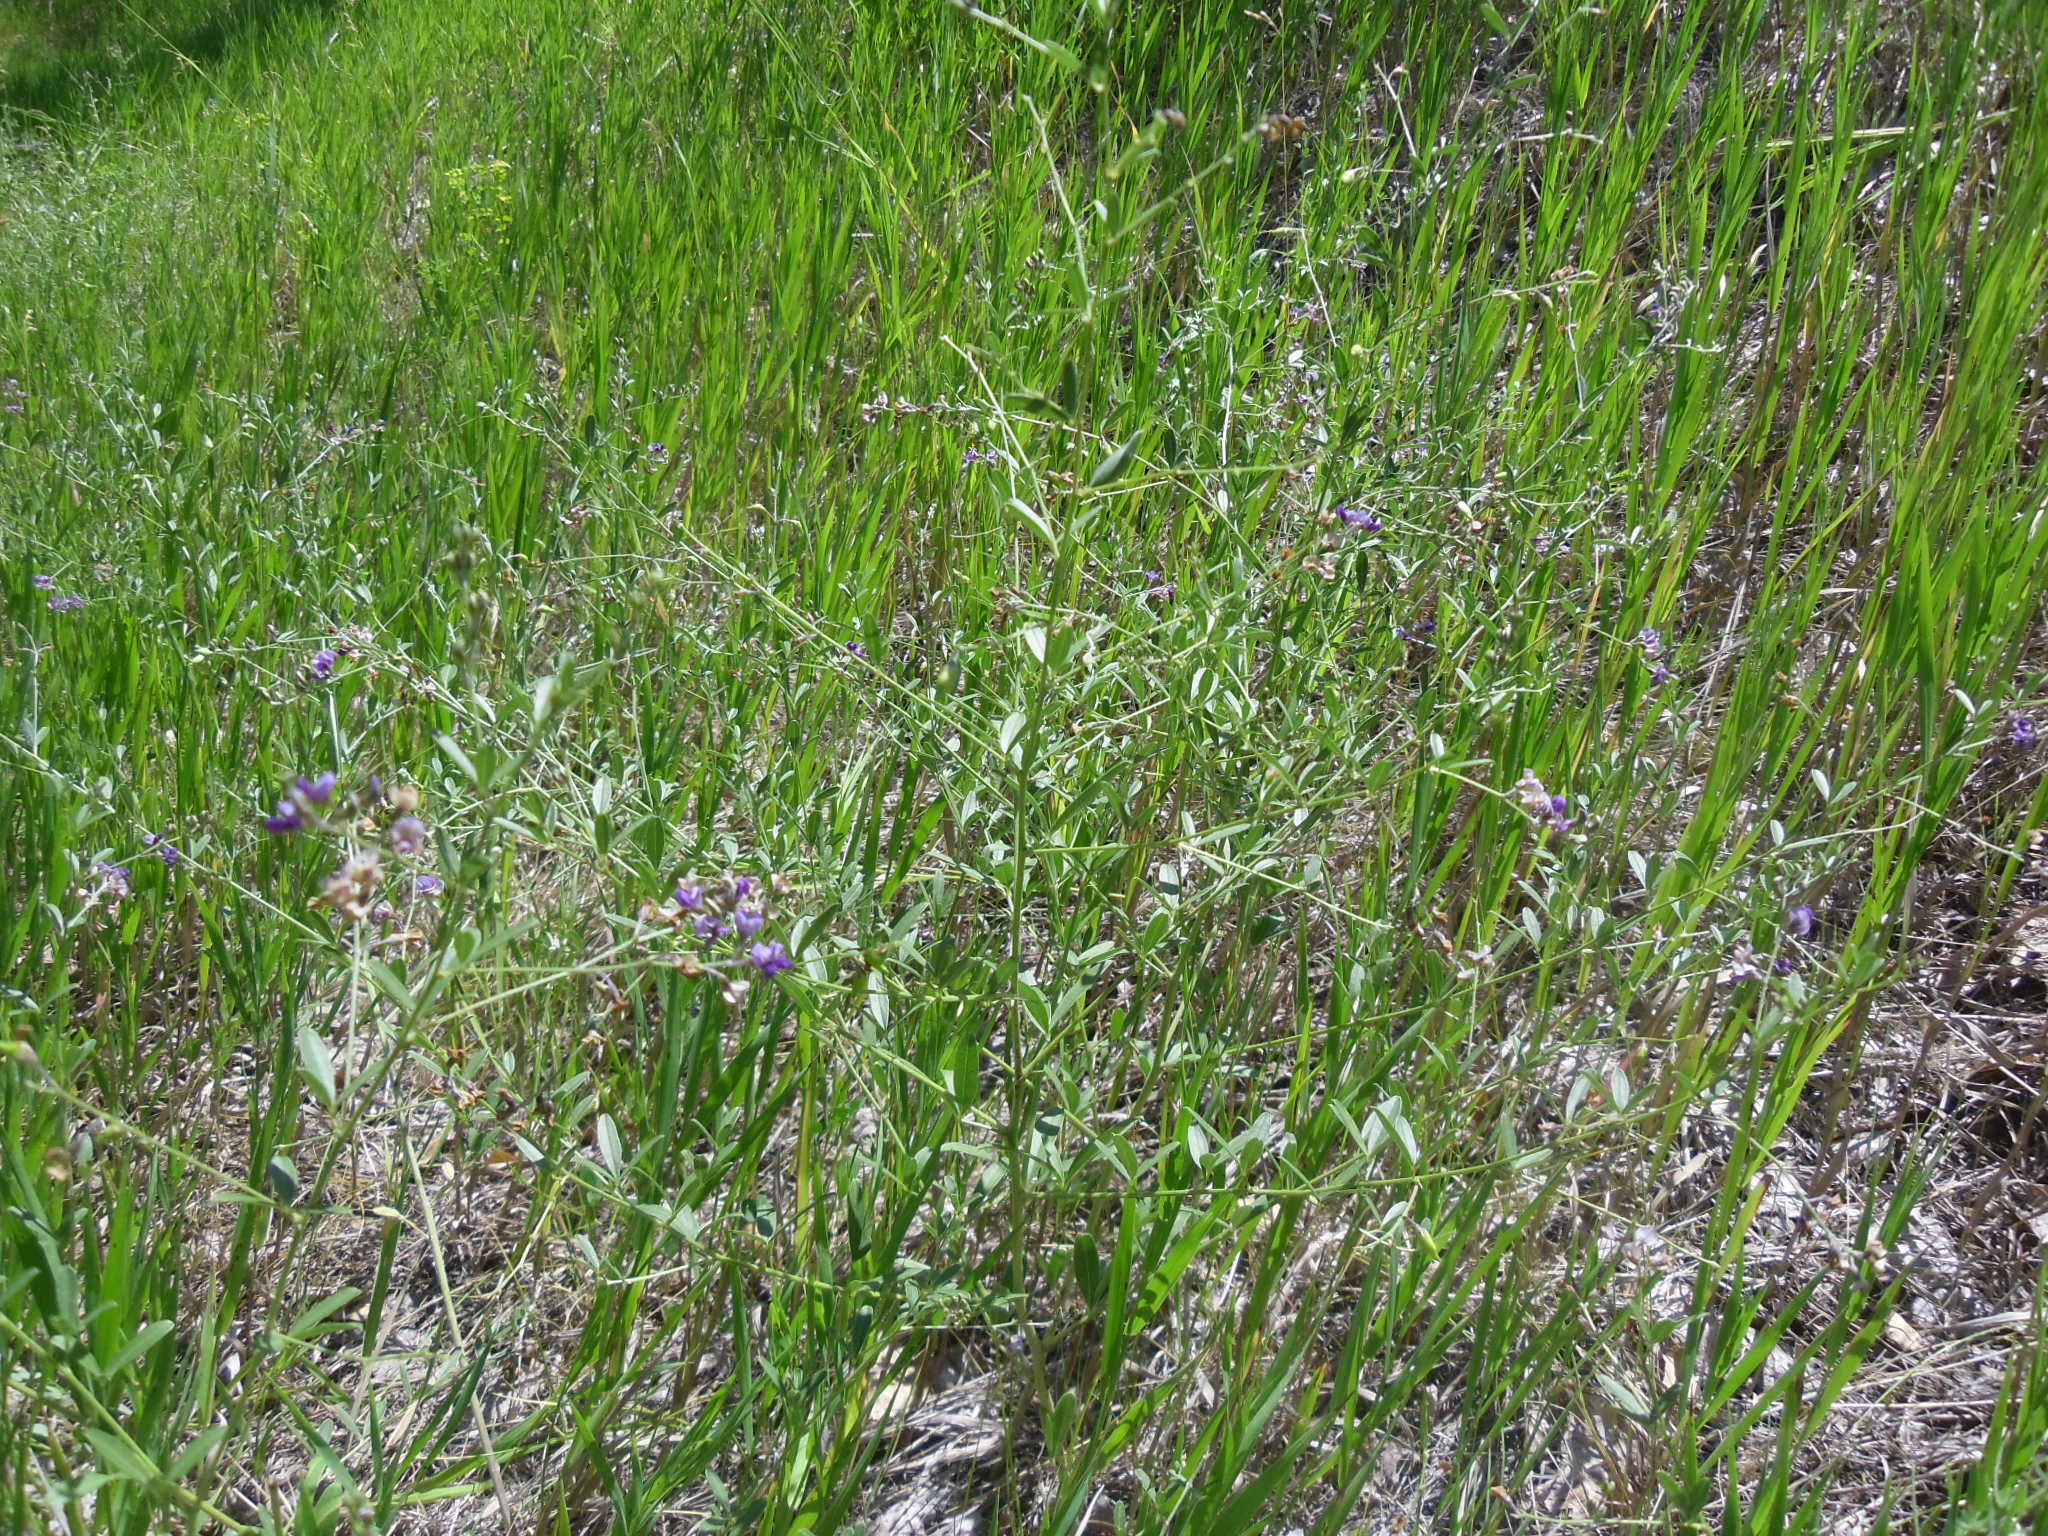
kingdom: Plantae
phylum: Tracheophyta
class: Magnoliopsida
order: Fabales
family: Fabaceae
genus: Pediomelum
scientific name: Pediomelum tenuiflorum
